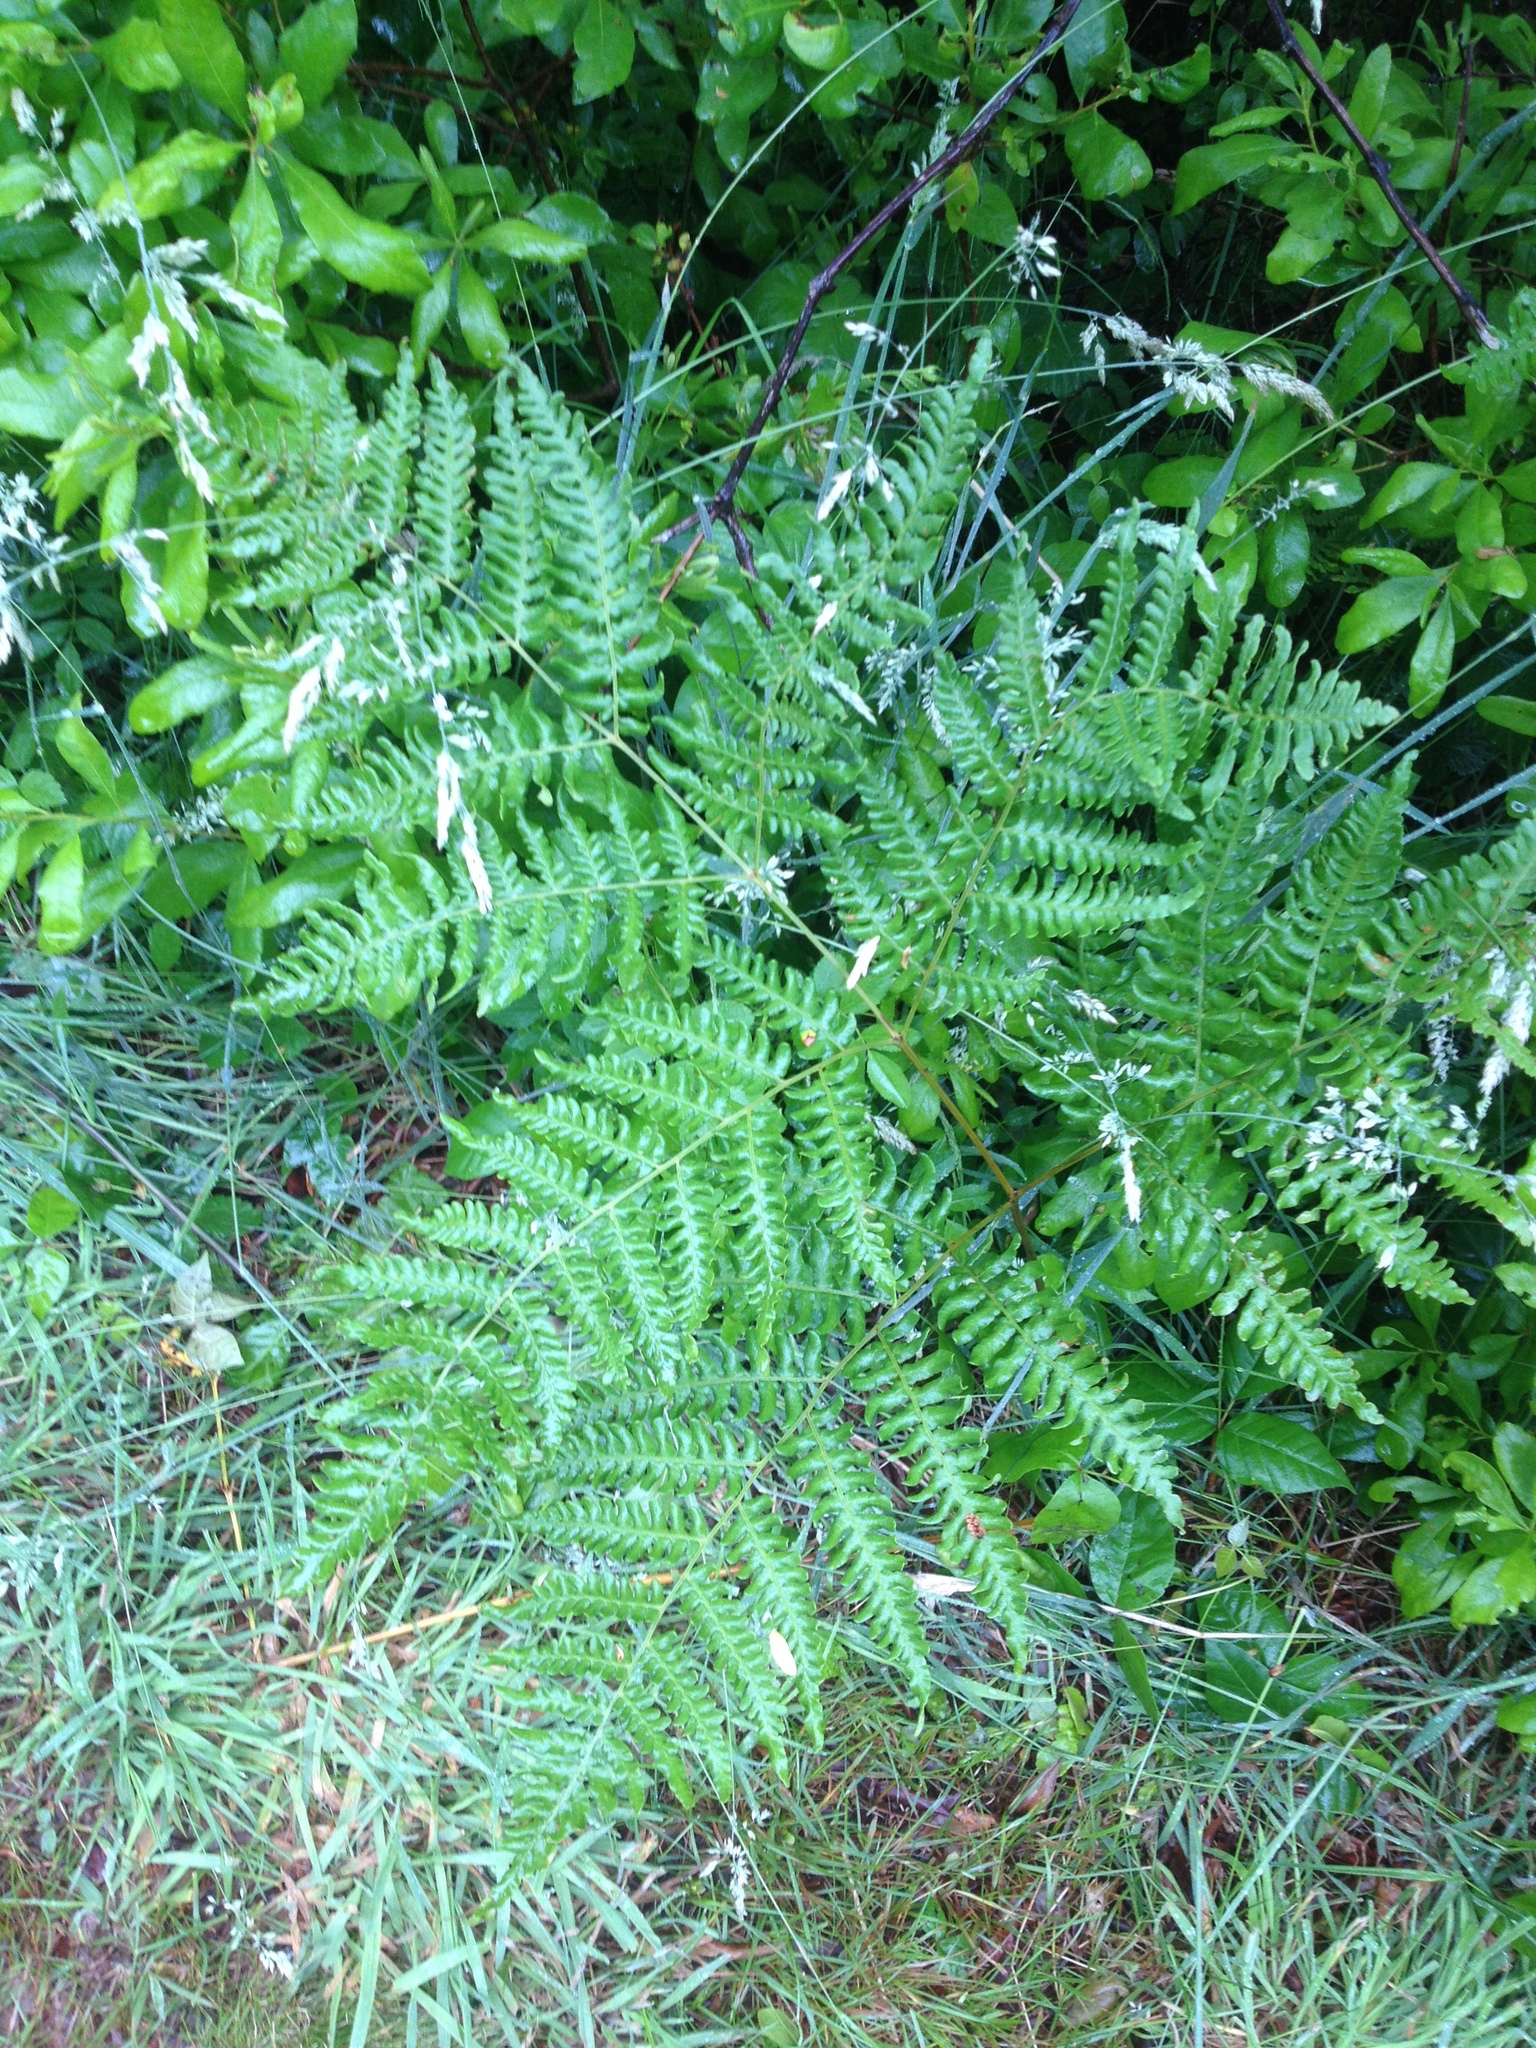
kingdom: Plantae
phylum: Tracheophyta
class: Polypodiopsida
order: Polypodiales
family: Dennstaedtiaceae
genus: Pteridium
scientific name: Pteridium aquilinum
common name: Bracken
